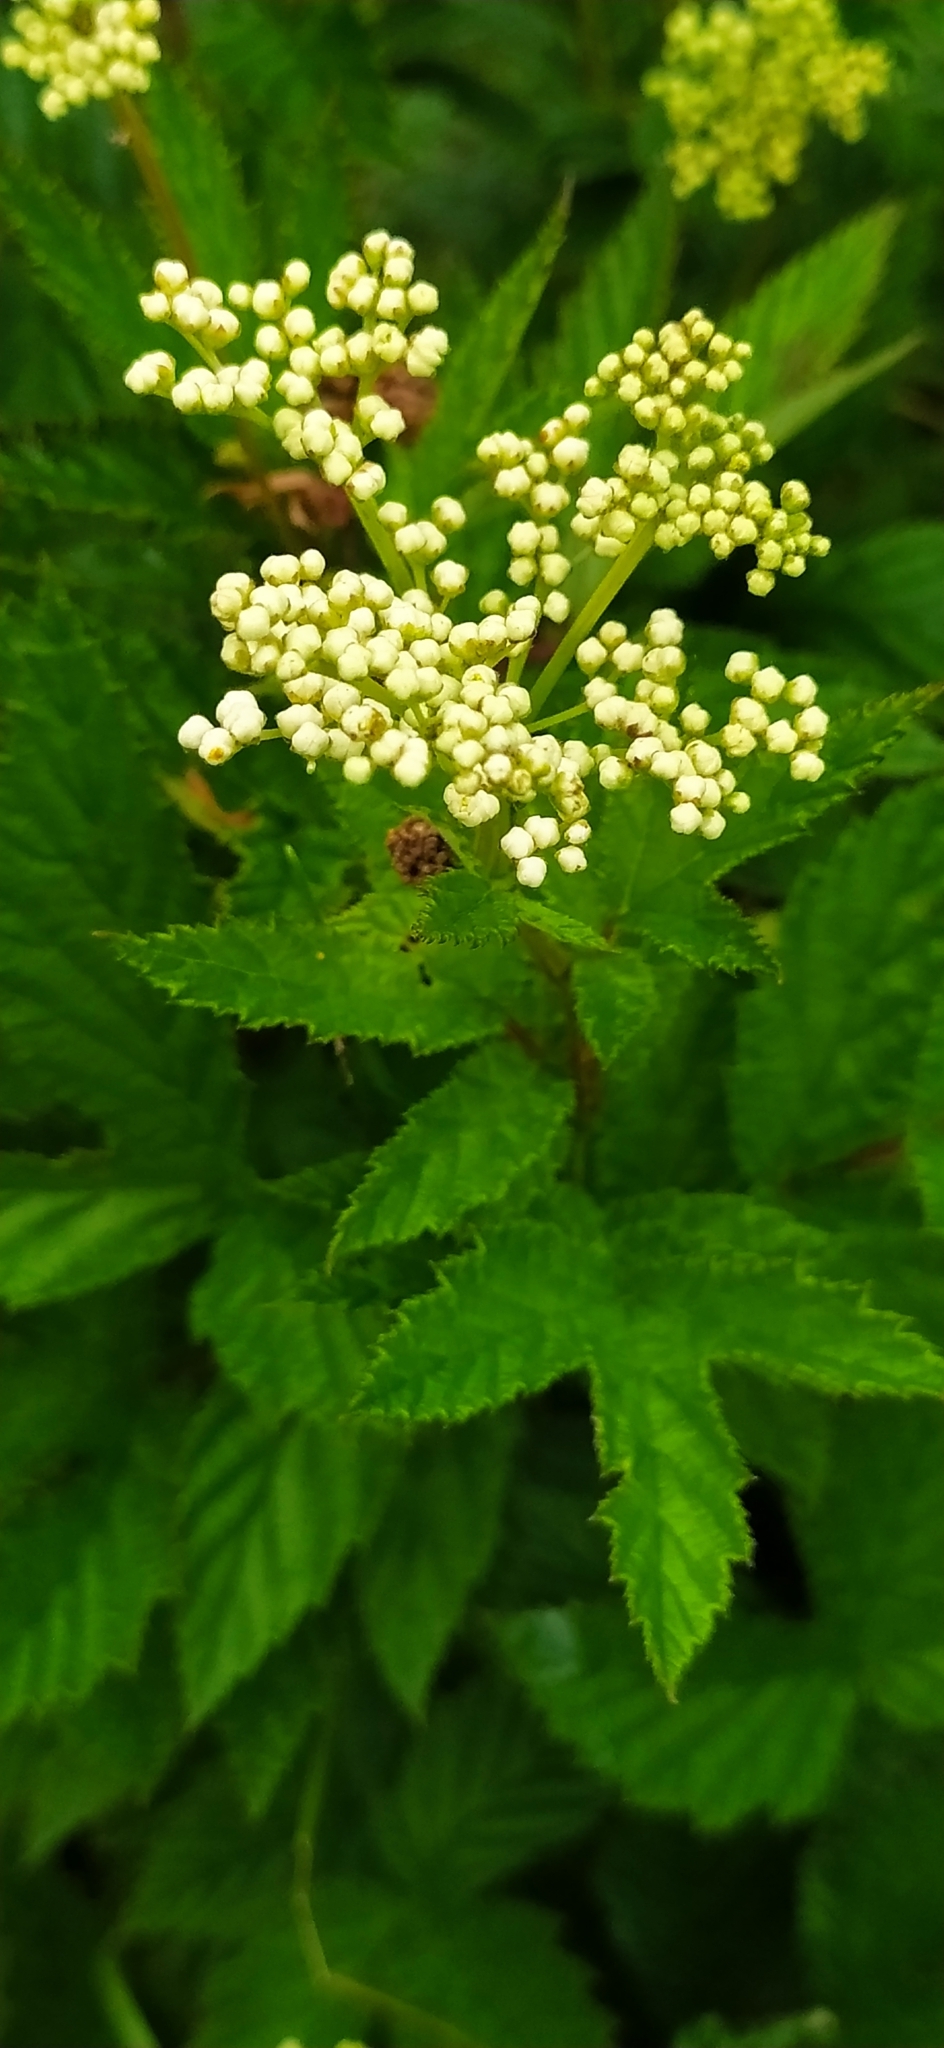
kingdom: Plantae
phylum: Tracheophyta
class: Magnoliopsida
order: Rosales
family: Rosaceae
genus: Filipendula
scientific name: Filipendula ulmaria
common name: Meadowsweet
